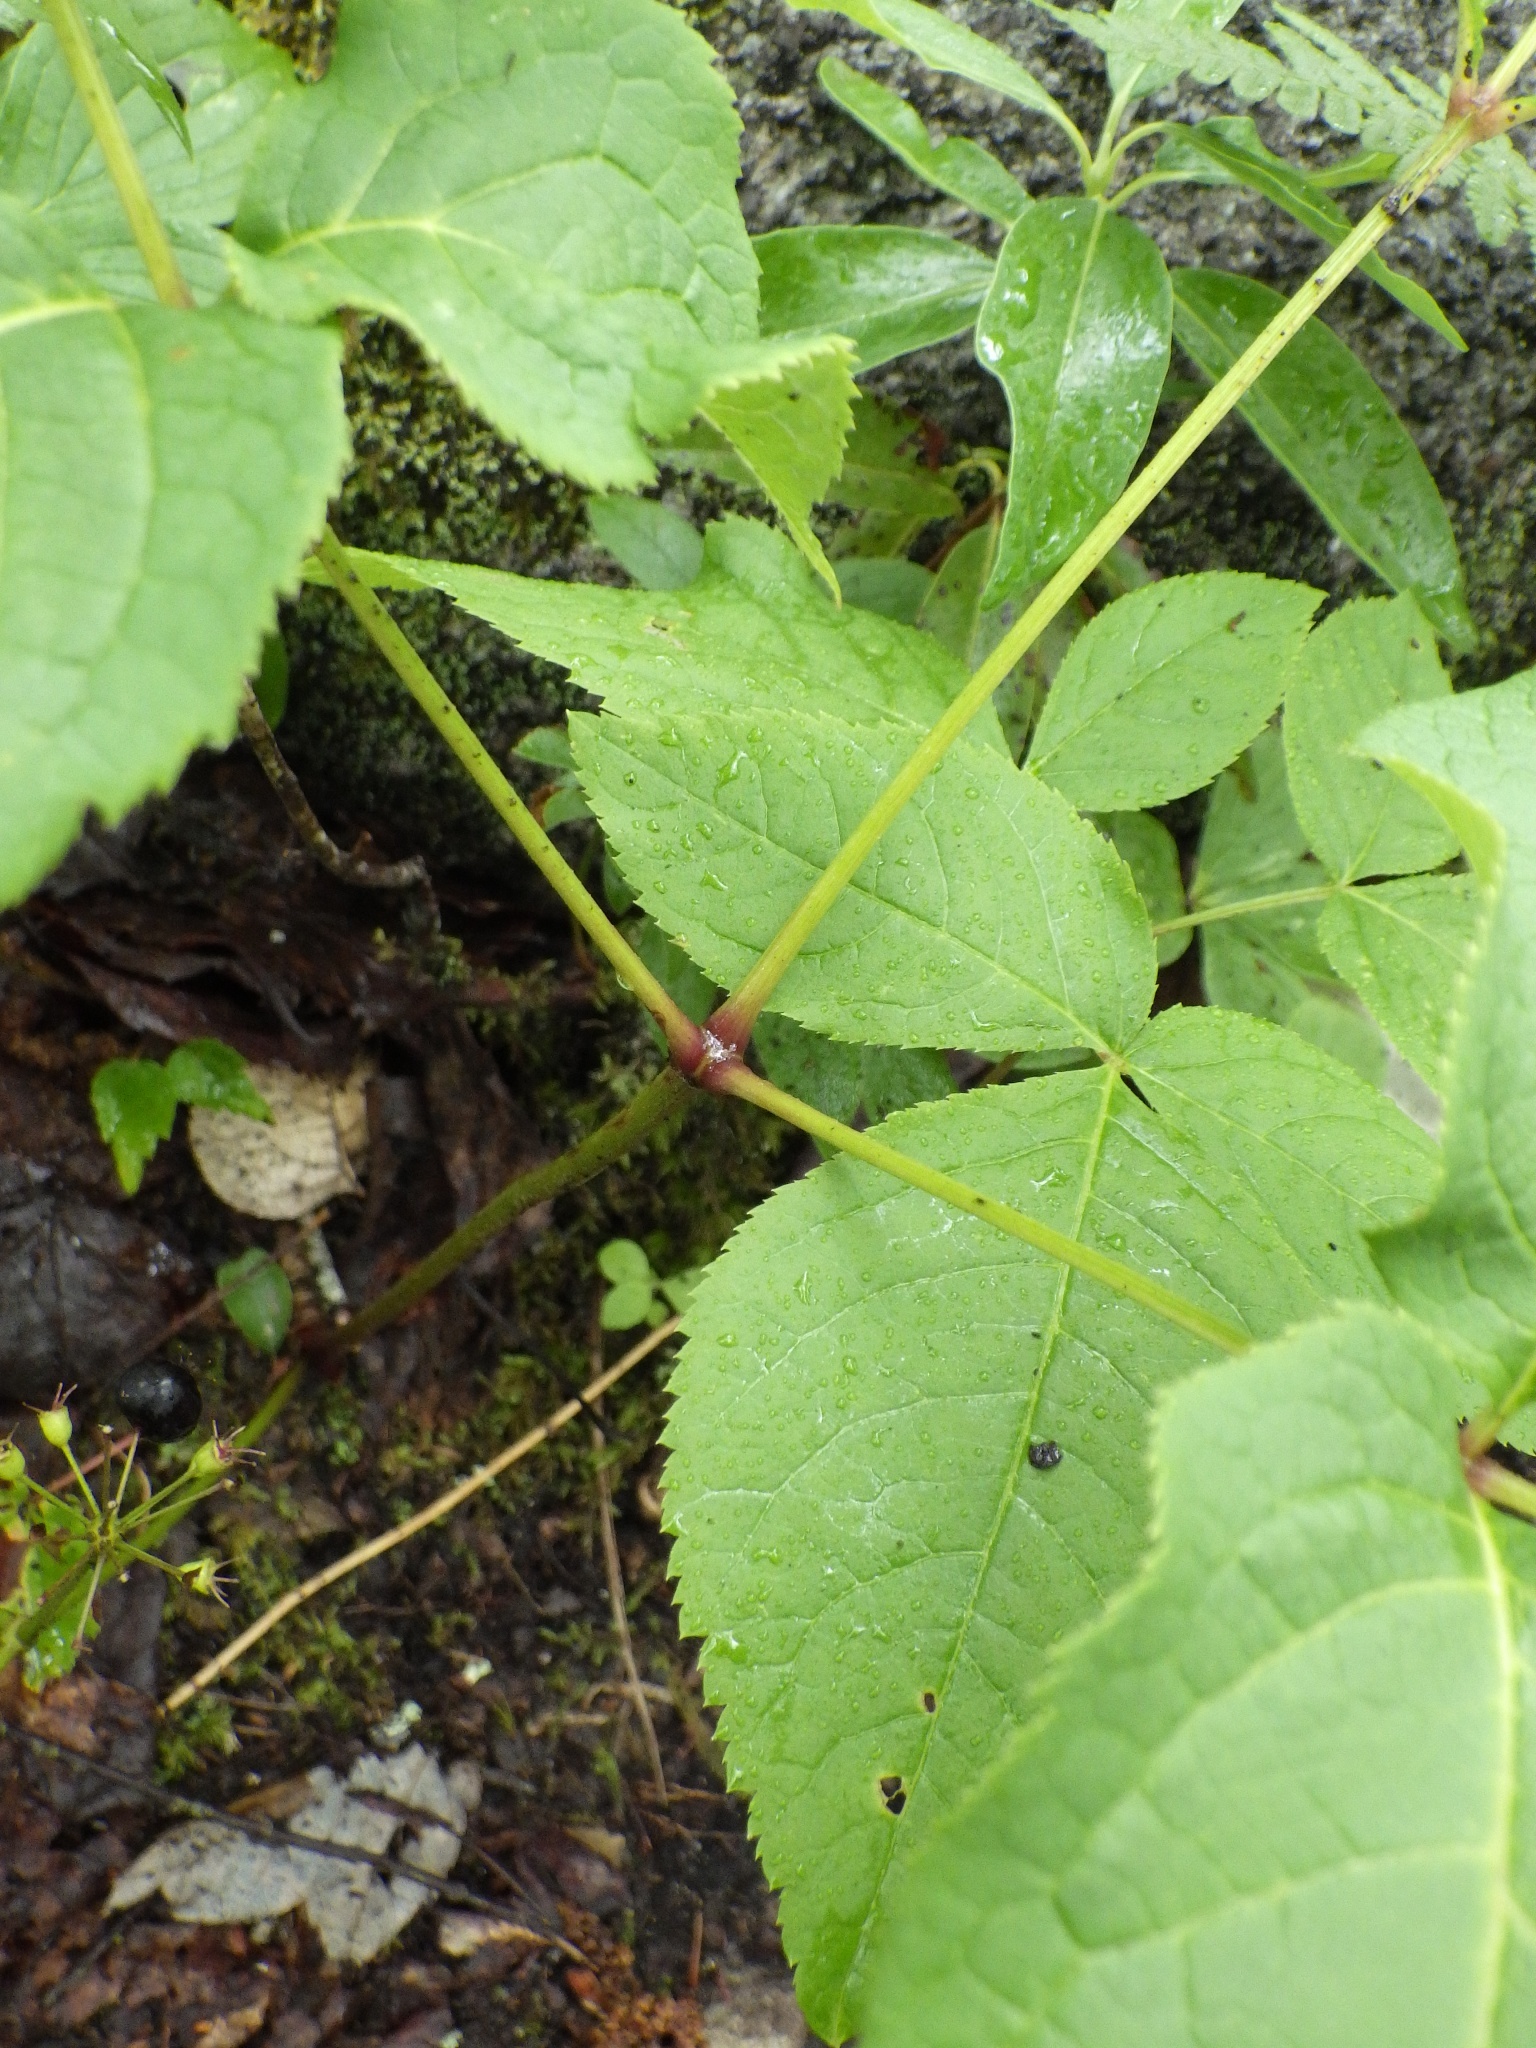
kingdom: Plantae
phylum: Tracheophyta
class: Magnoliopsida
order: Apiales
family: Araliaceae
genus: Aralia
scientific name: Aralia nudicaulis
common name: Wild sarsaparilla
